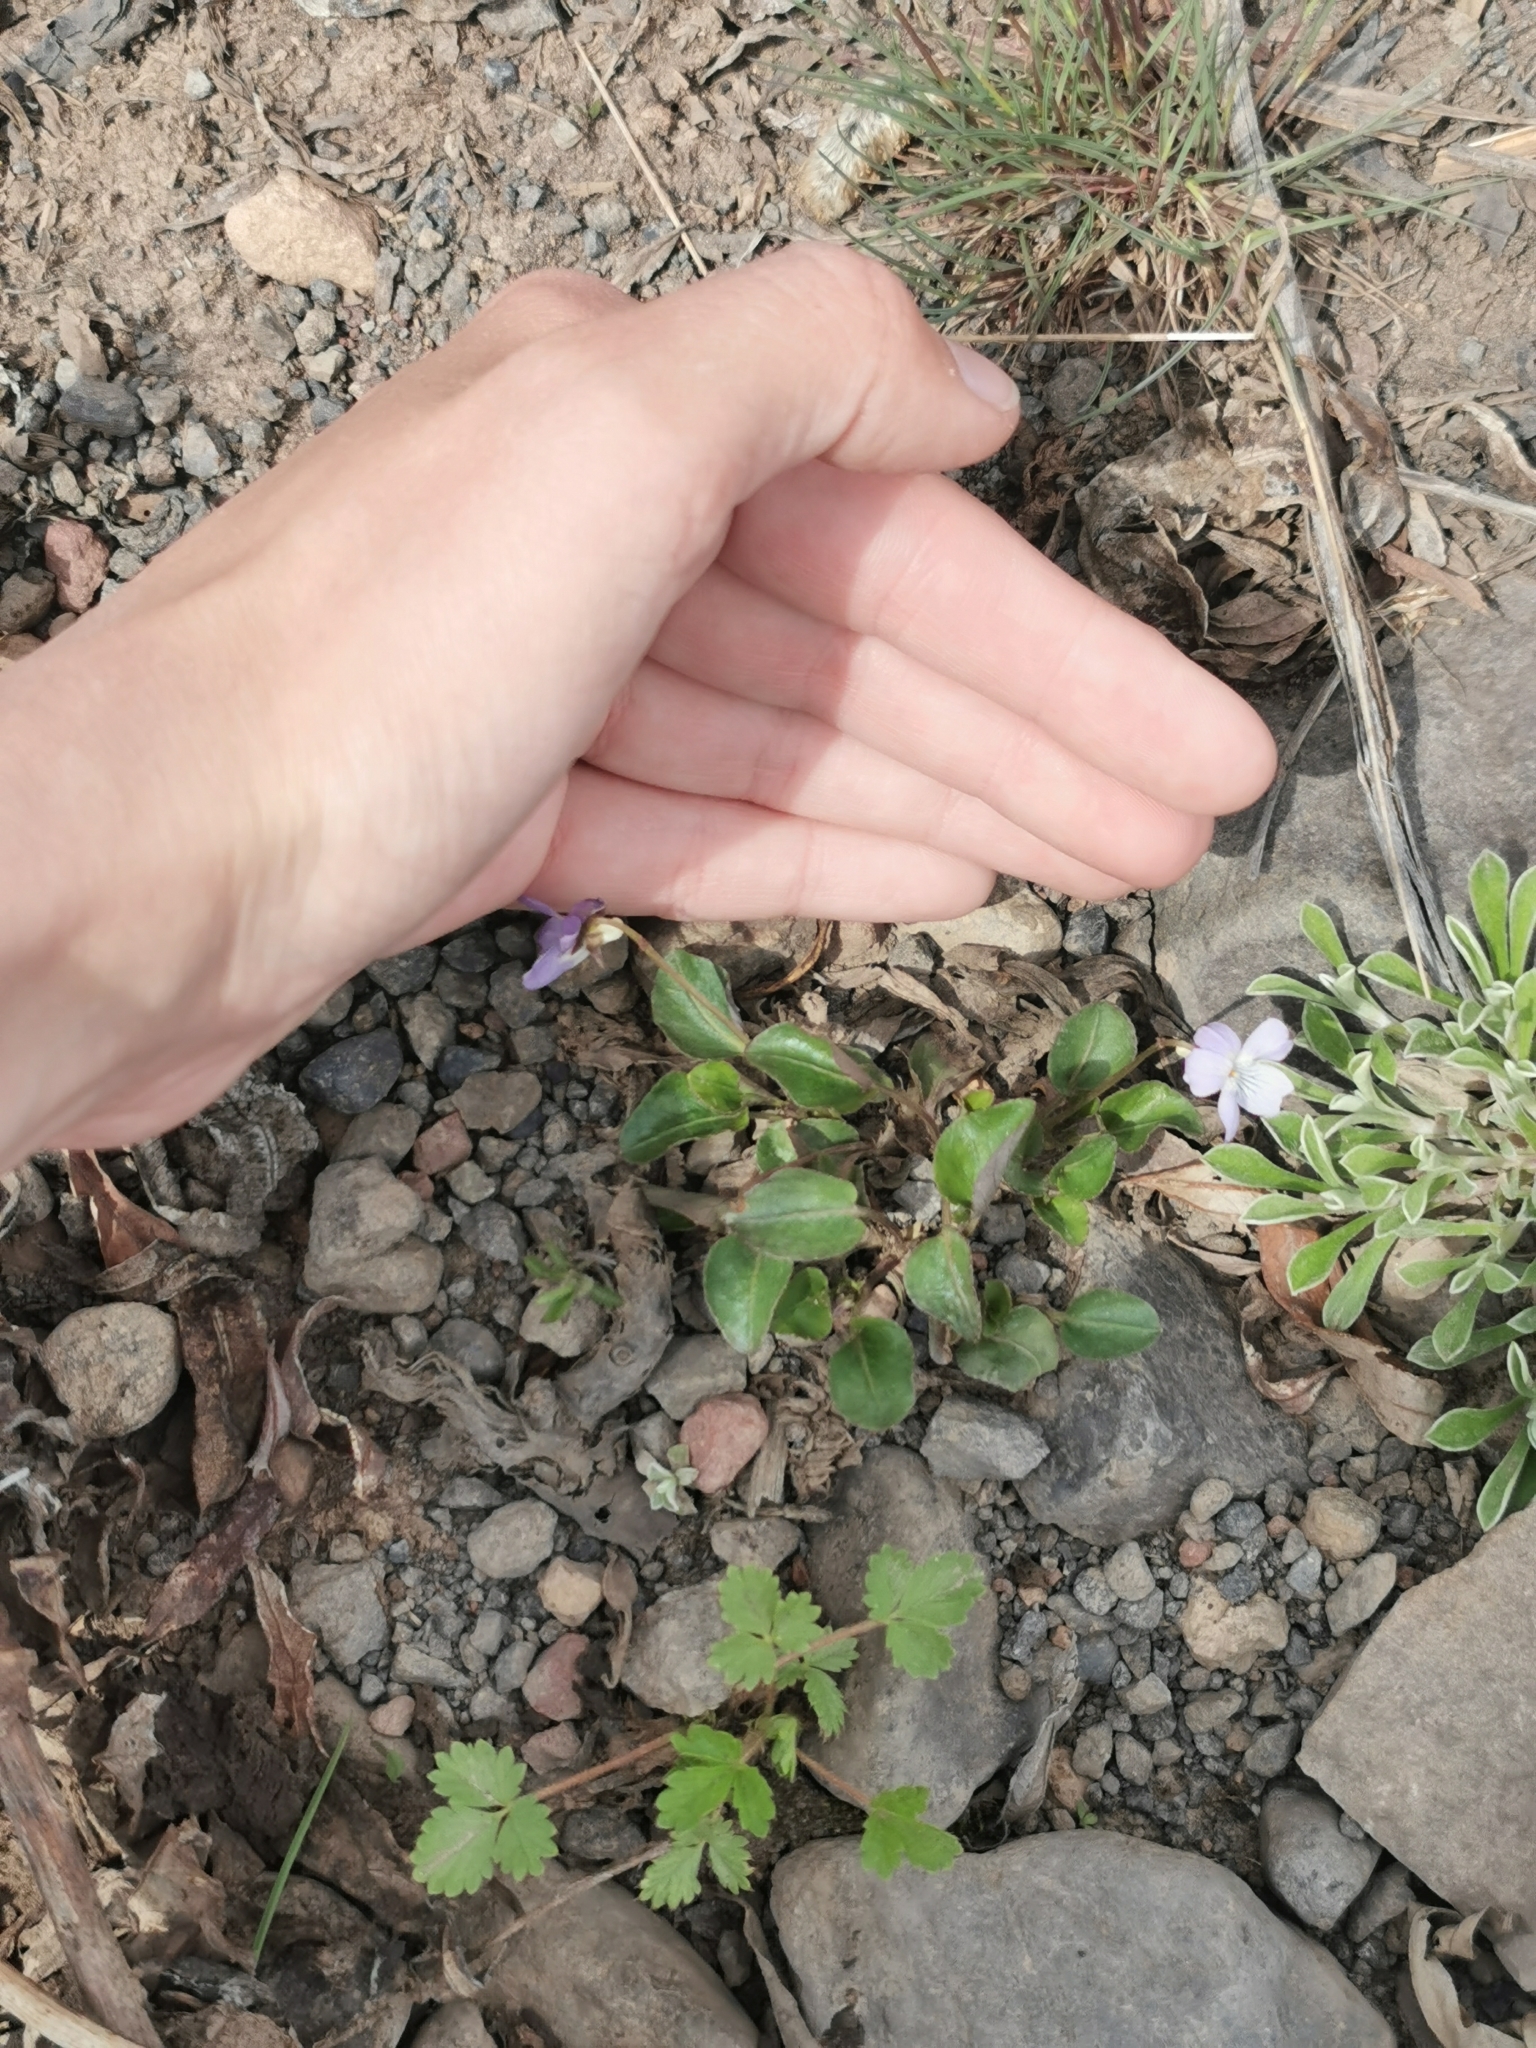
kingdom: Plantae
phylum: Tracheophyta
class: Magnoliopsida
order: Malpighiales
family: Violaceae
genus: Viola
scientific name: Viola selkirkii
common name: Selkirk's violet
